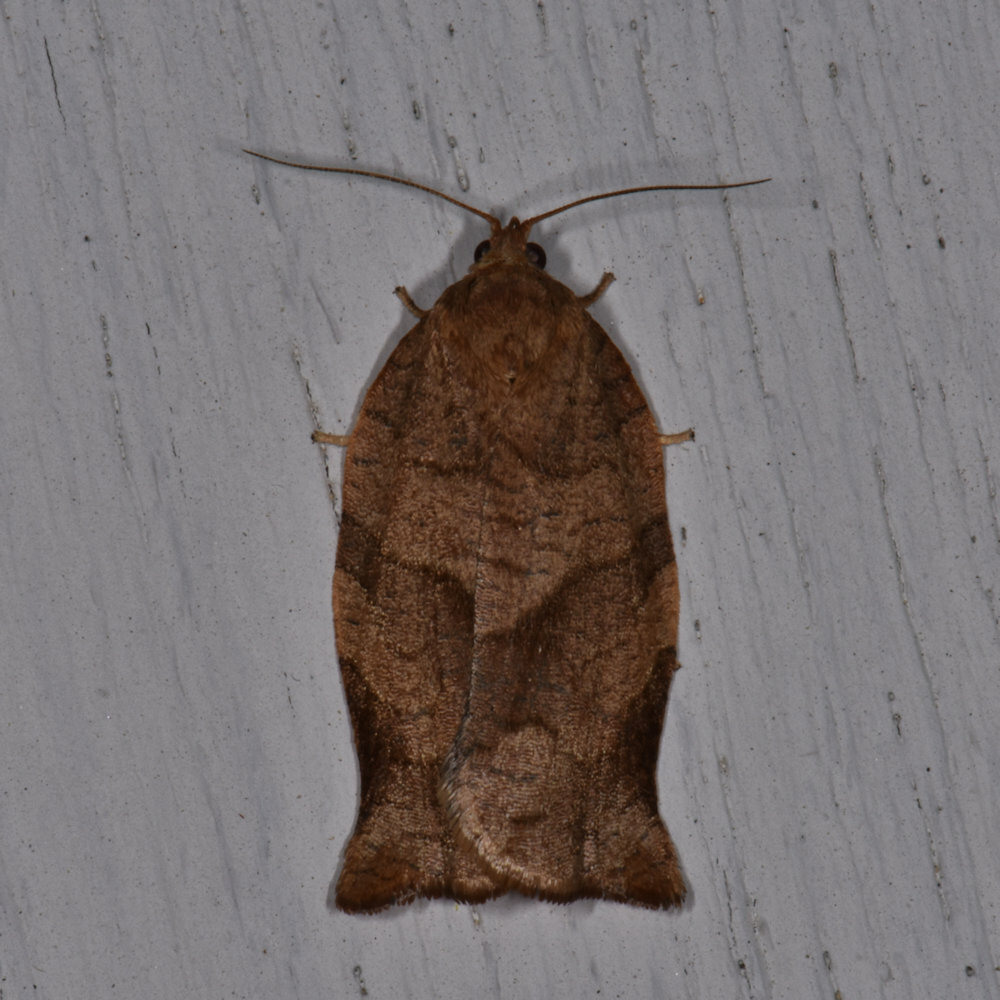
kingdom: Animalia
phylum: Arthropoda
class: Insecta
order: Lepidoptera
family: Tortricidae
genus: Choristoneura
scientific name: Choristoneura rosaceana
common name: Oblique-banded leafroller moth
